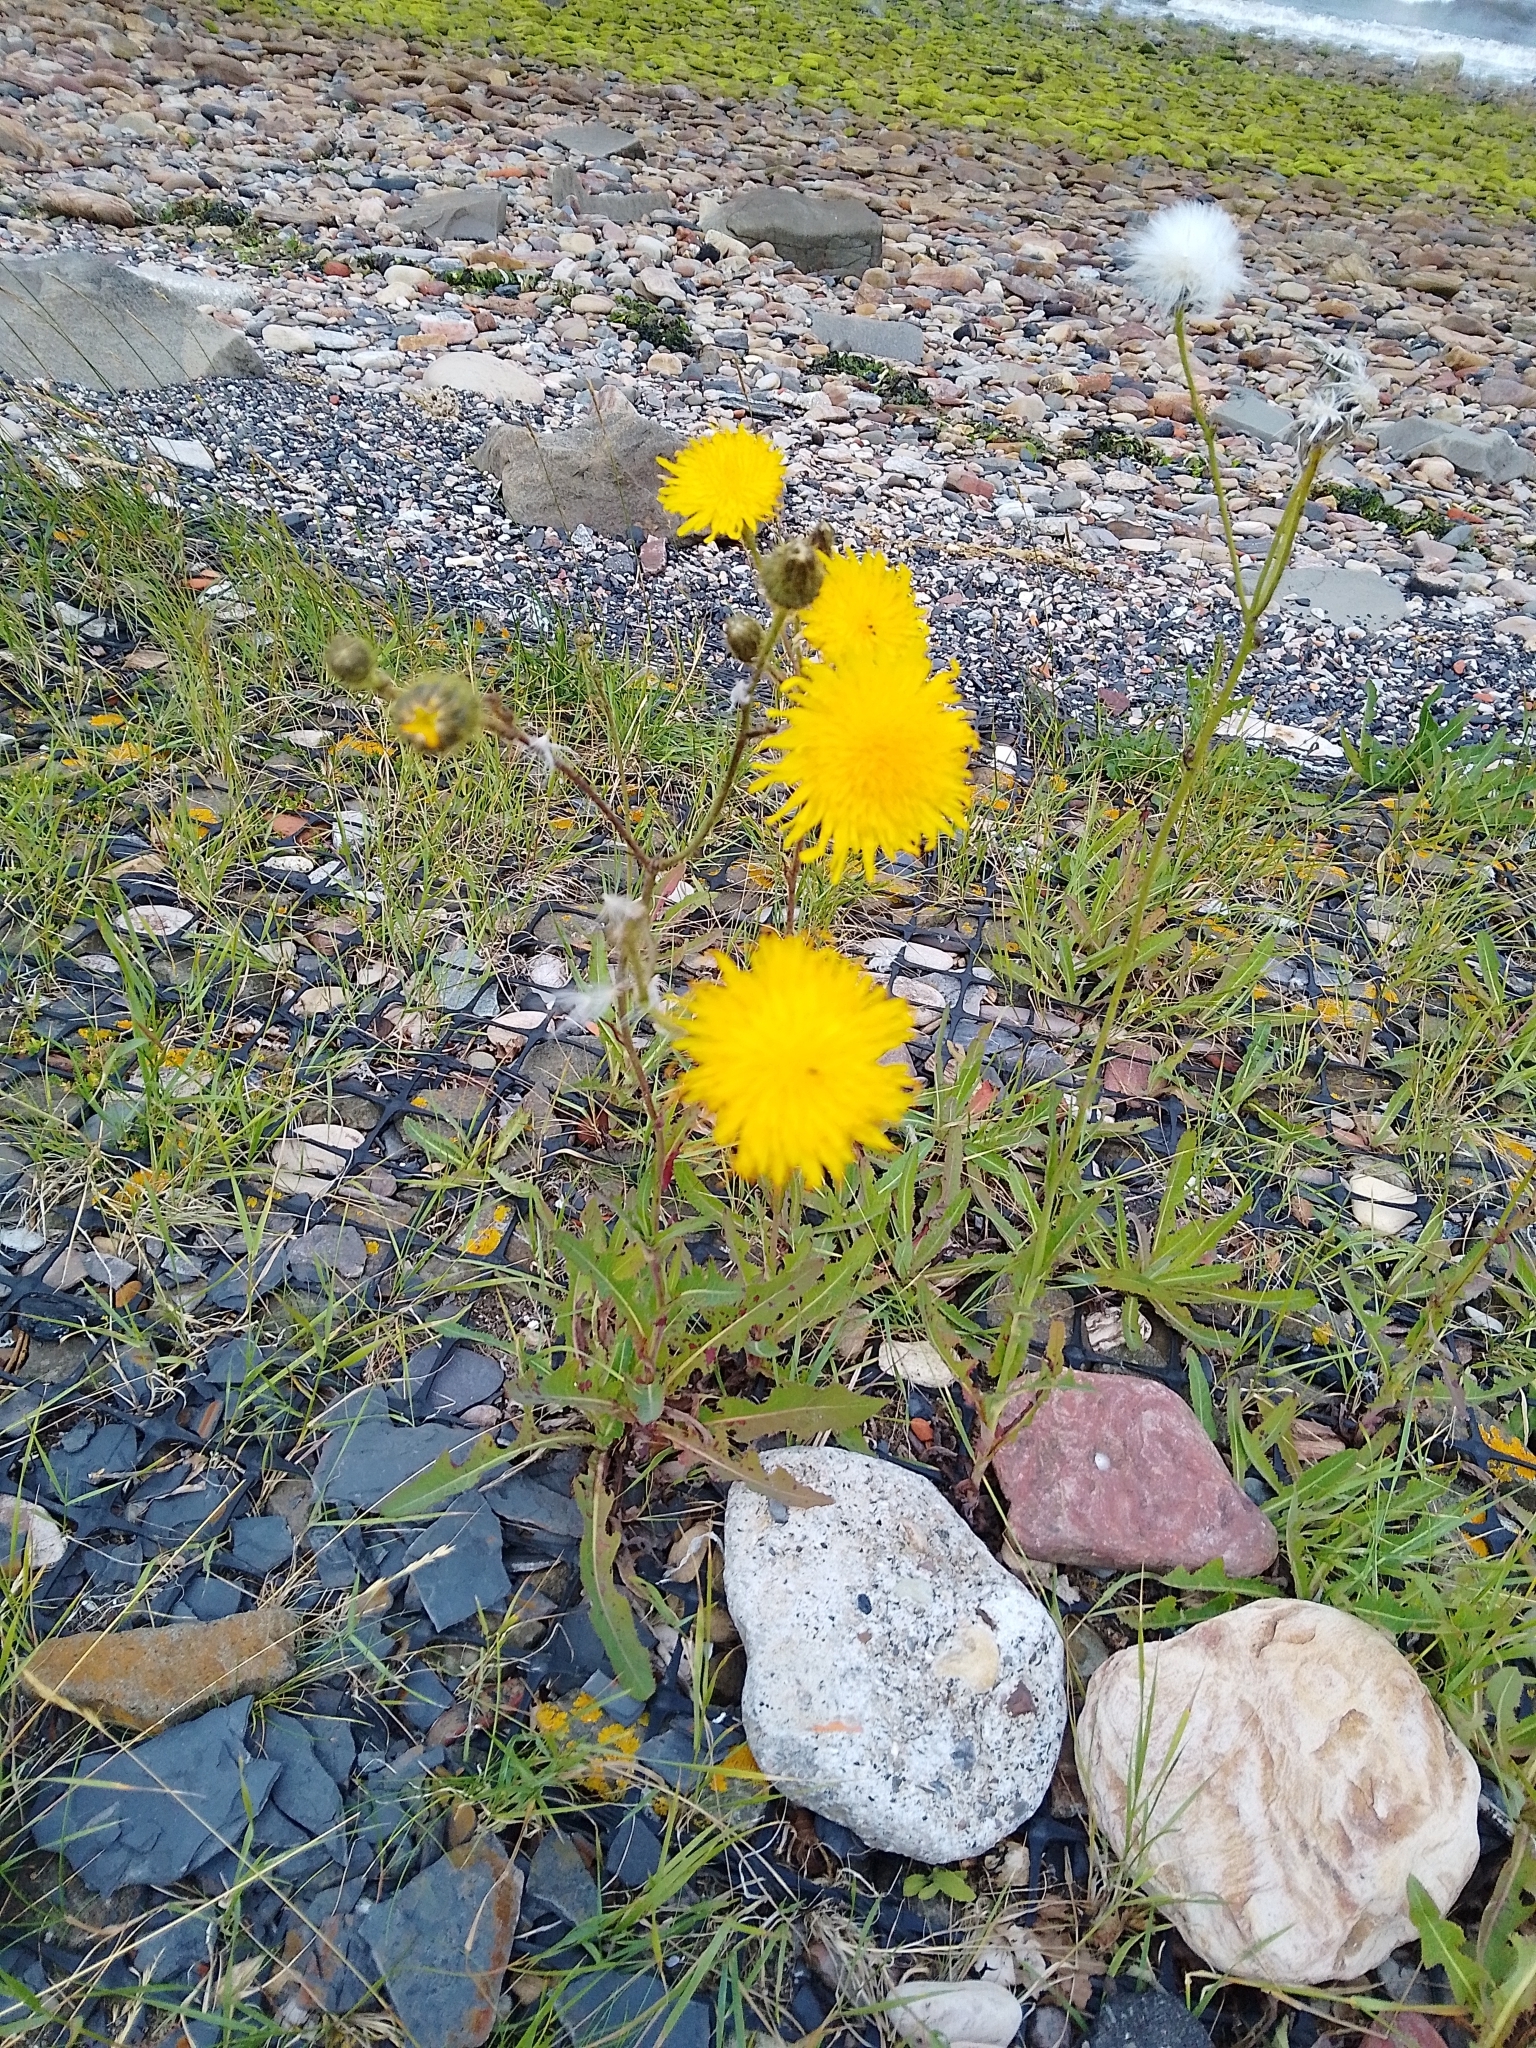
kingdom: Plantae
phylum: Tracheophyta
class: Magnoliopsida
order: Asterales
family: Asteraceae
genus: Sonchus
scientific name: Sonchus arvensis
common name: Perennial sow-thistle
